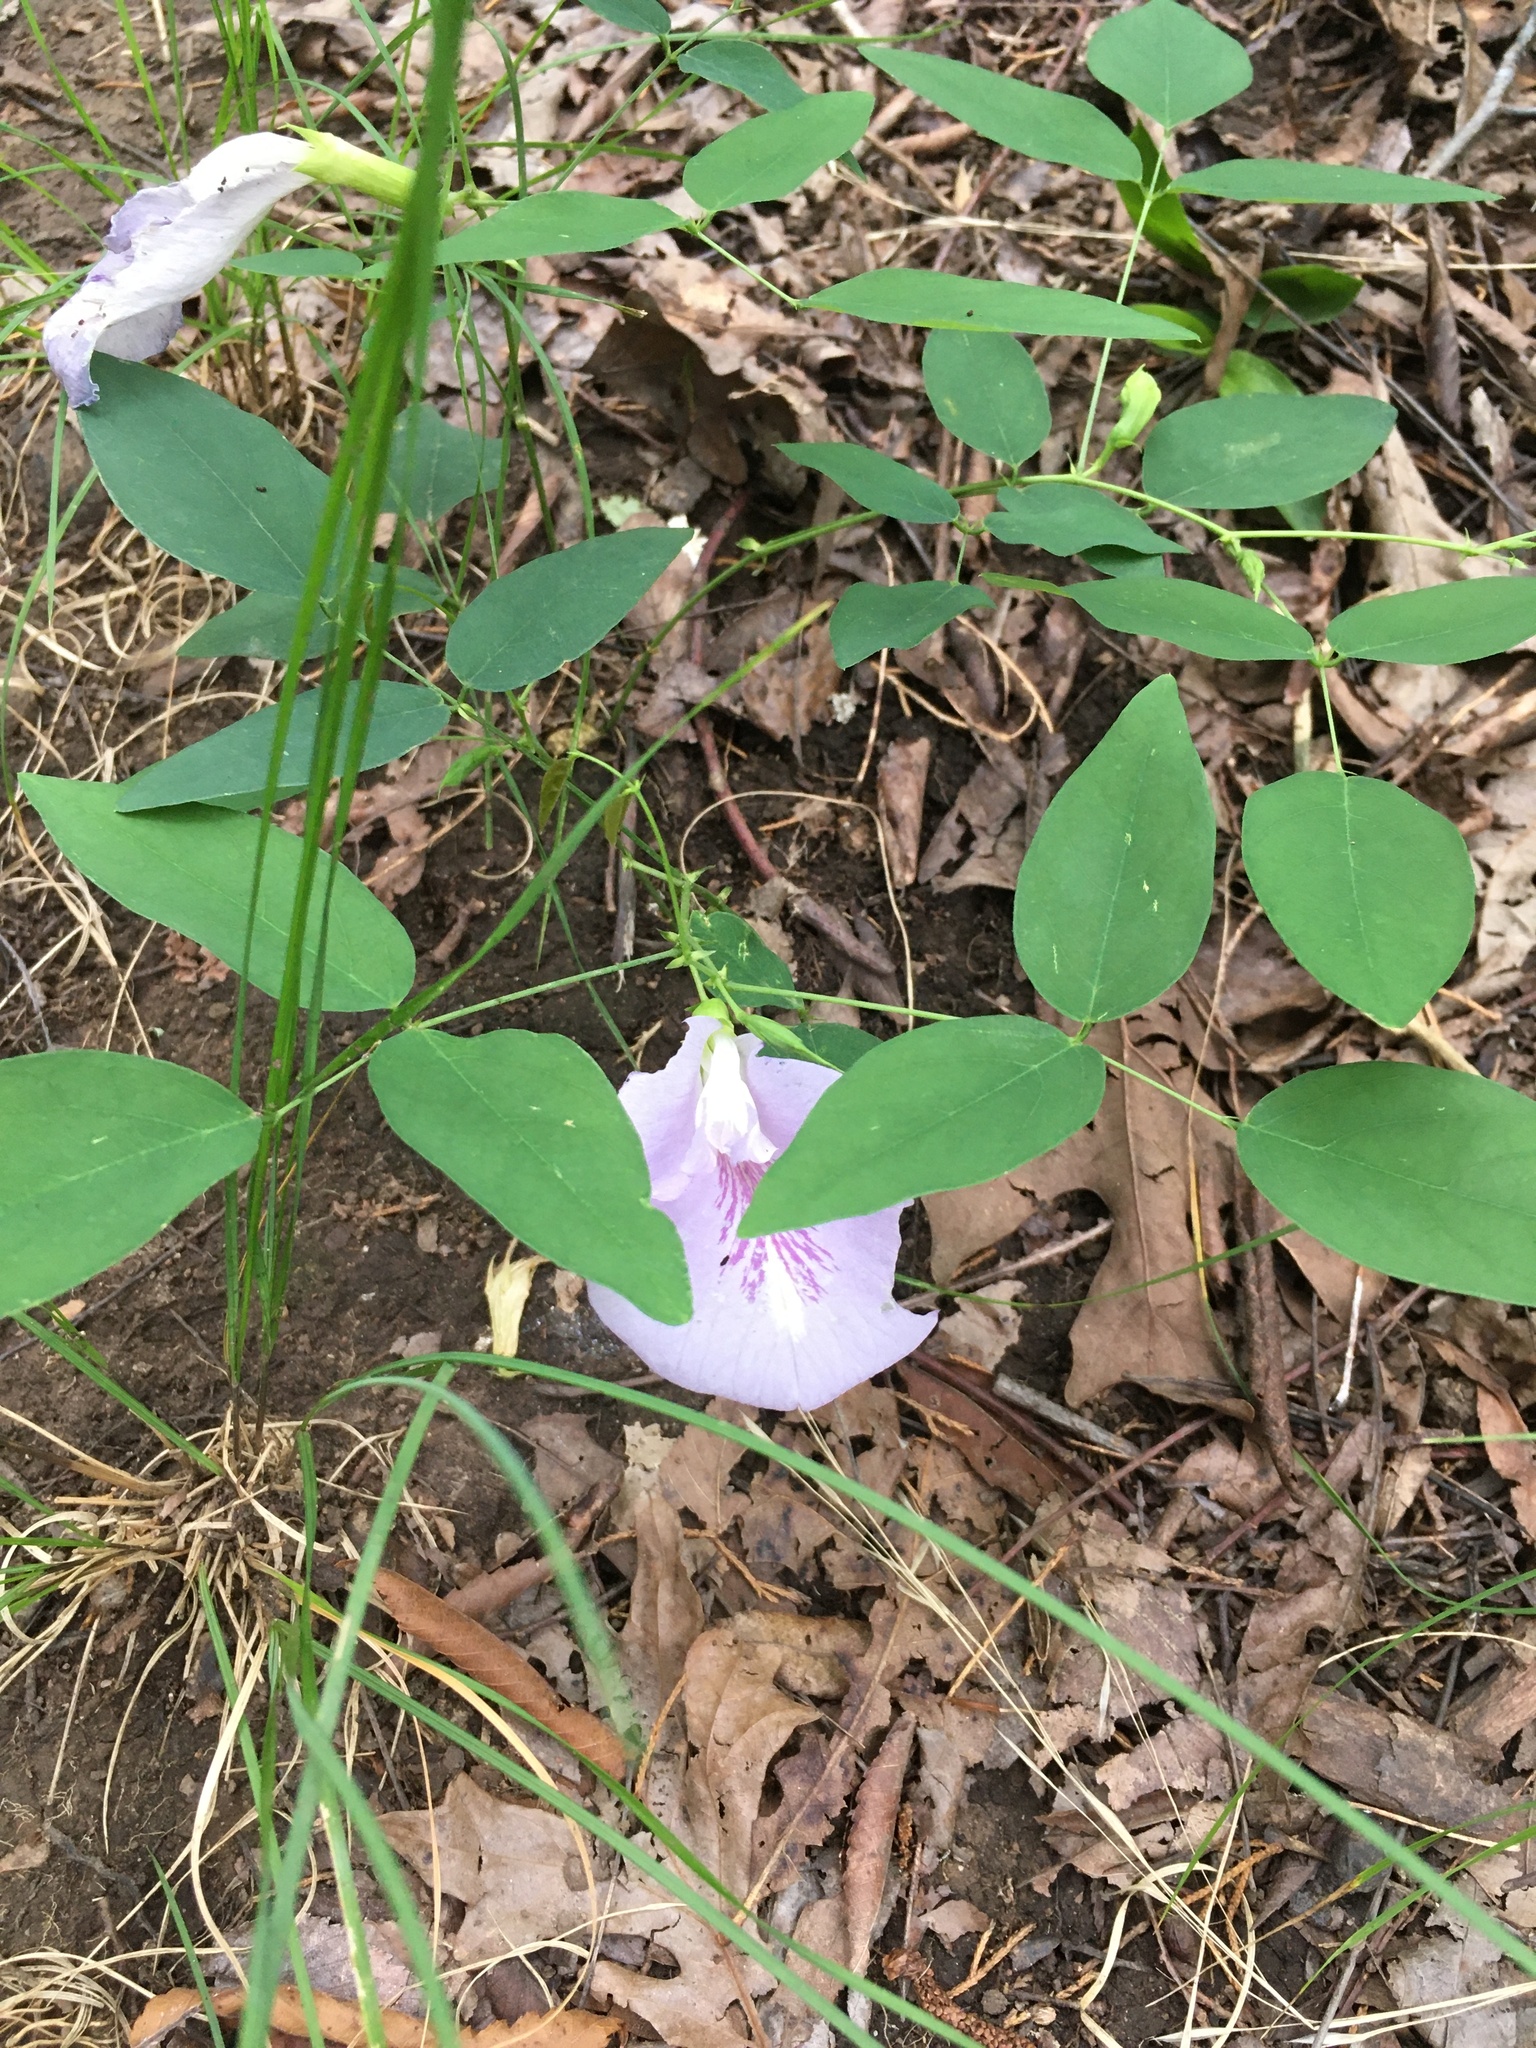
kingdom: Plantae
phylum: Tracheophyta
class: Magnoliopsida
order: Fabales
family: Fabaceae
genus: Clitoria
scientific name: Clitoria mariana
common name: Butterfly-pea
